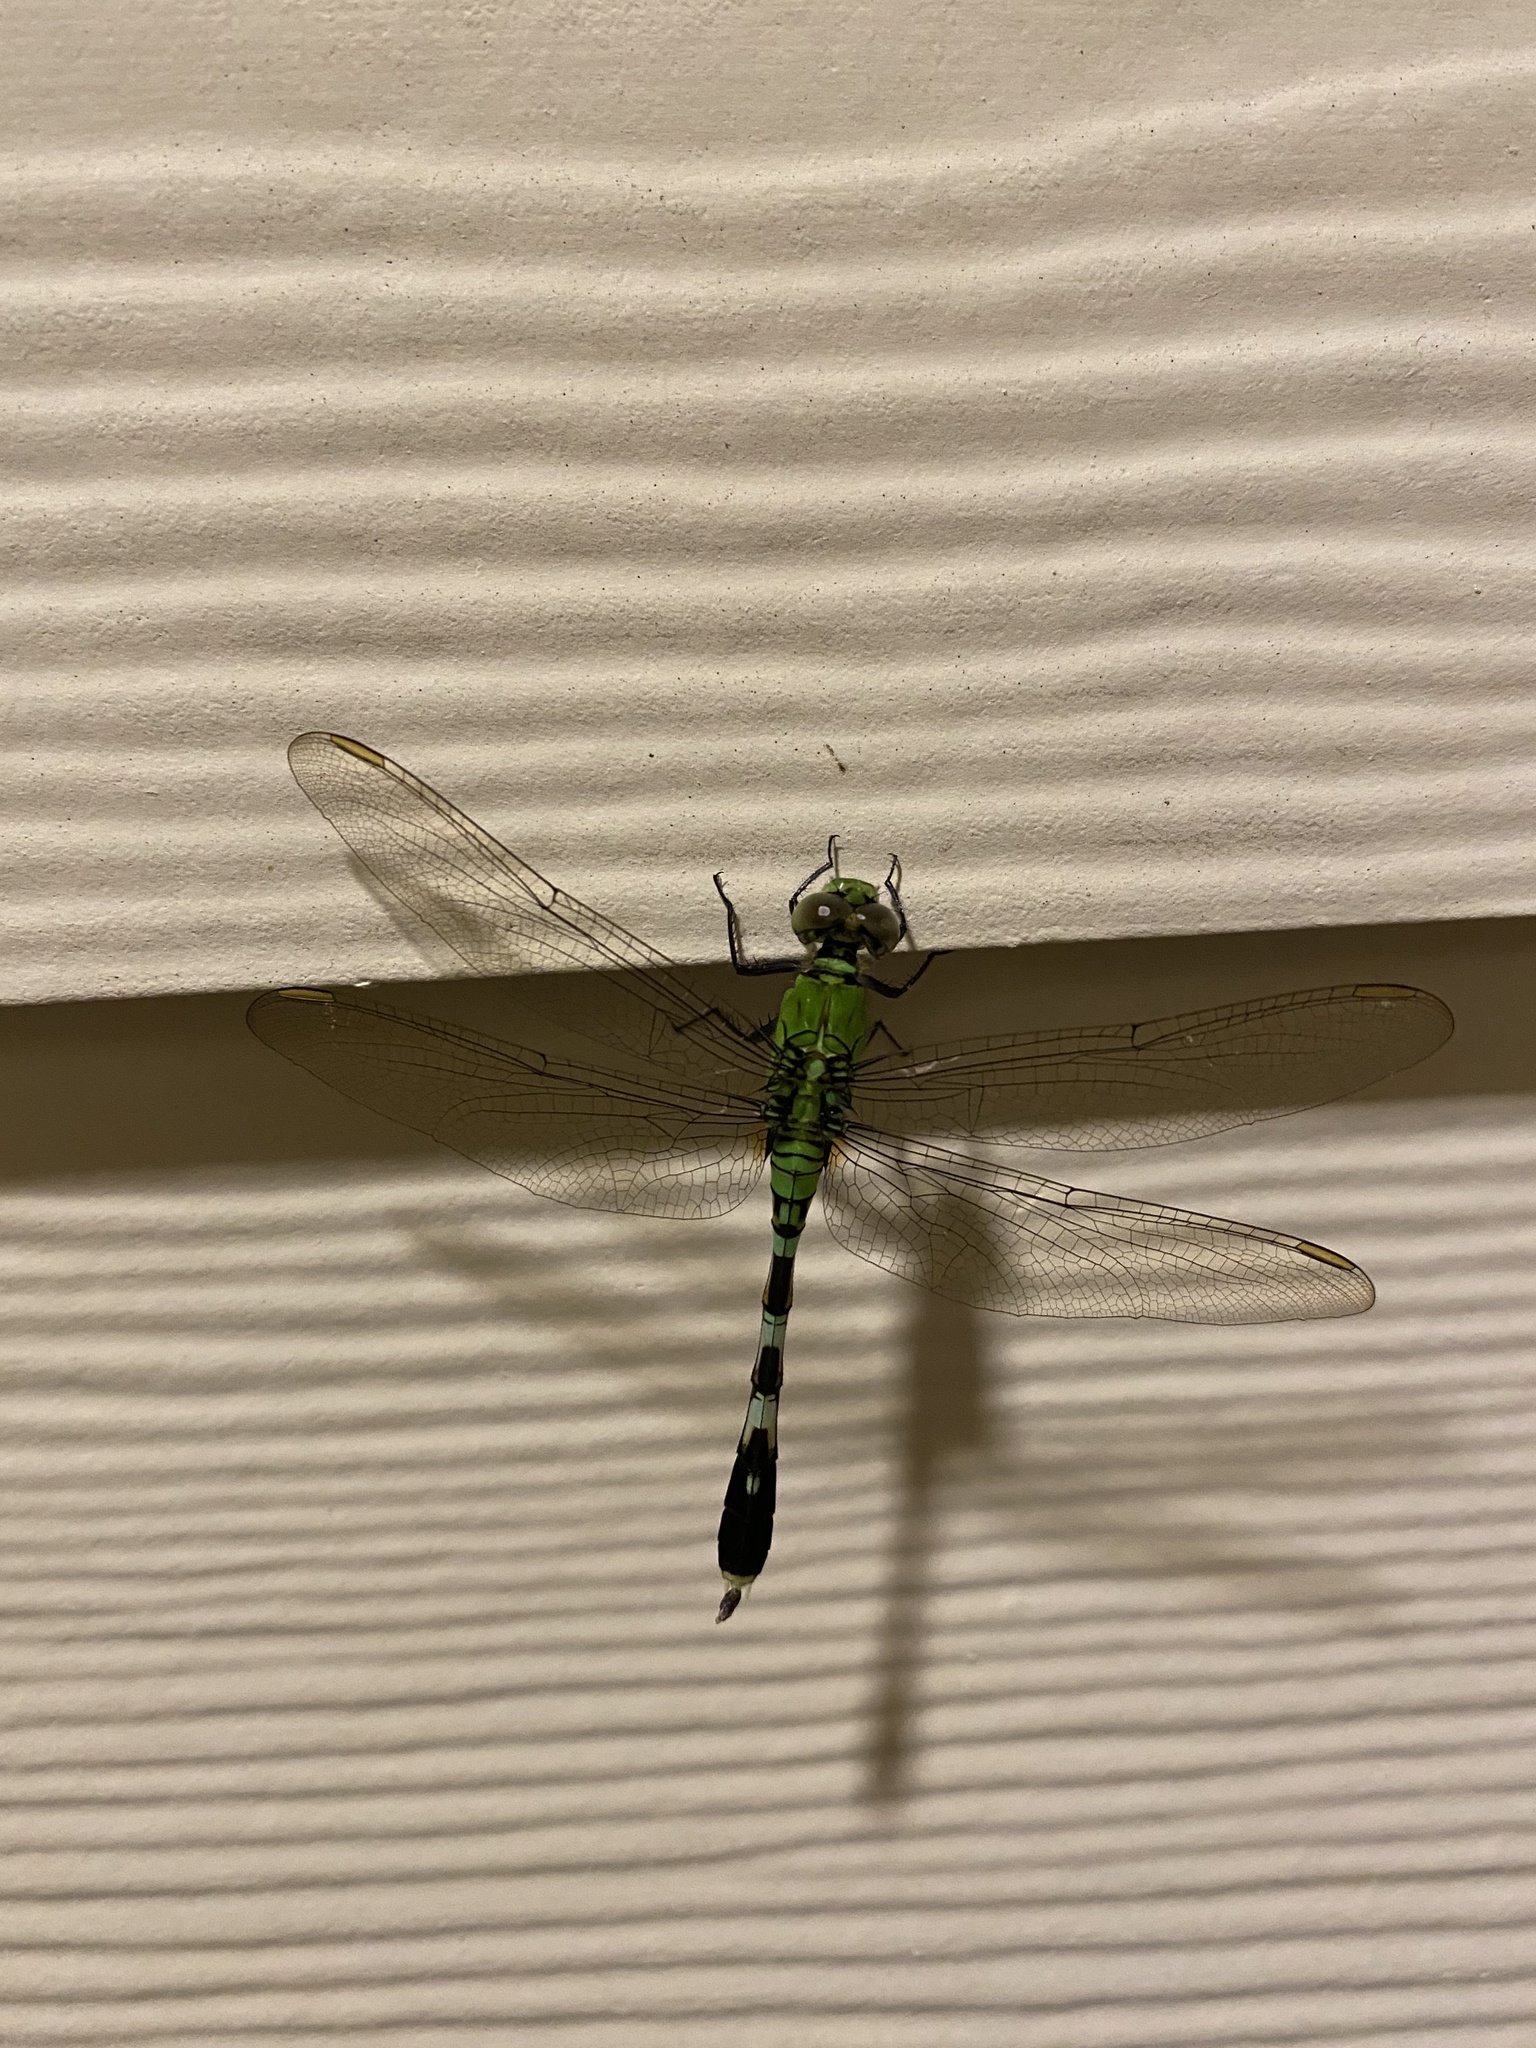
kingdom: Animalia
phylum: Arthropoda
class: Insecta
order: Odonata
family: Libellulidae
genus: Erythemis
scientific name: Erythemis simplicicollis
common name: Eastern pondhawk
